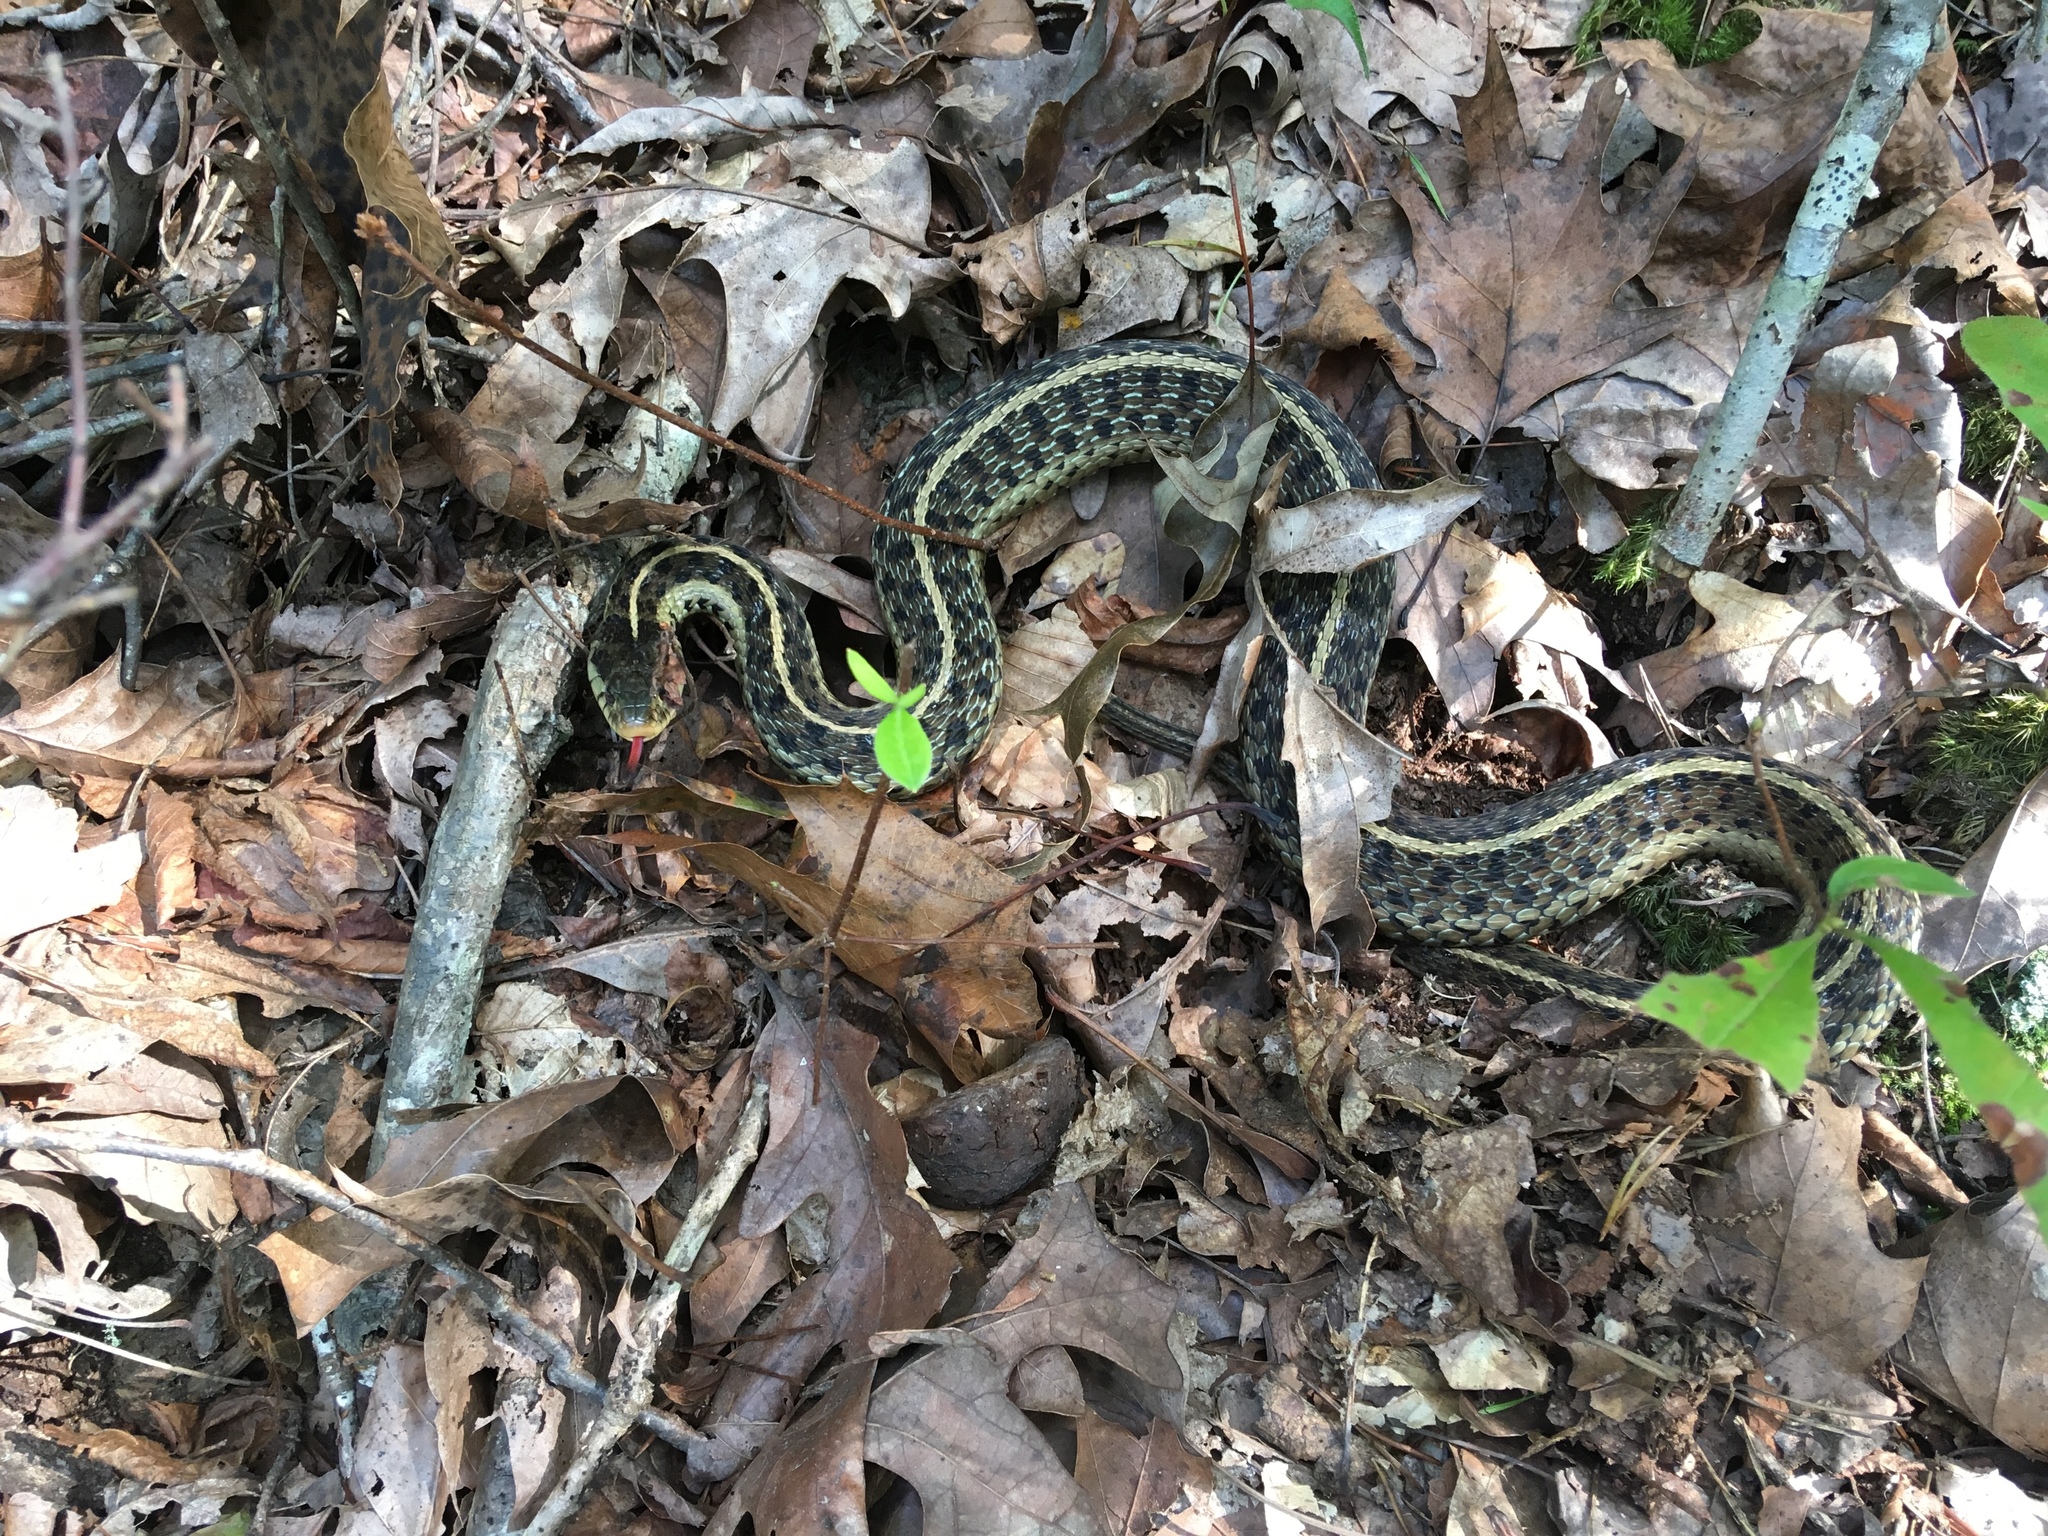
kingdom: Animalia
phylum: Chordata
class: Squamata
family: Colubridae
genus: Thamnophis
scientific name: Thamnophis sirtalis
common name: Common garter snake
